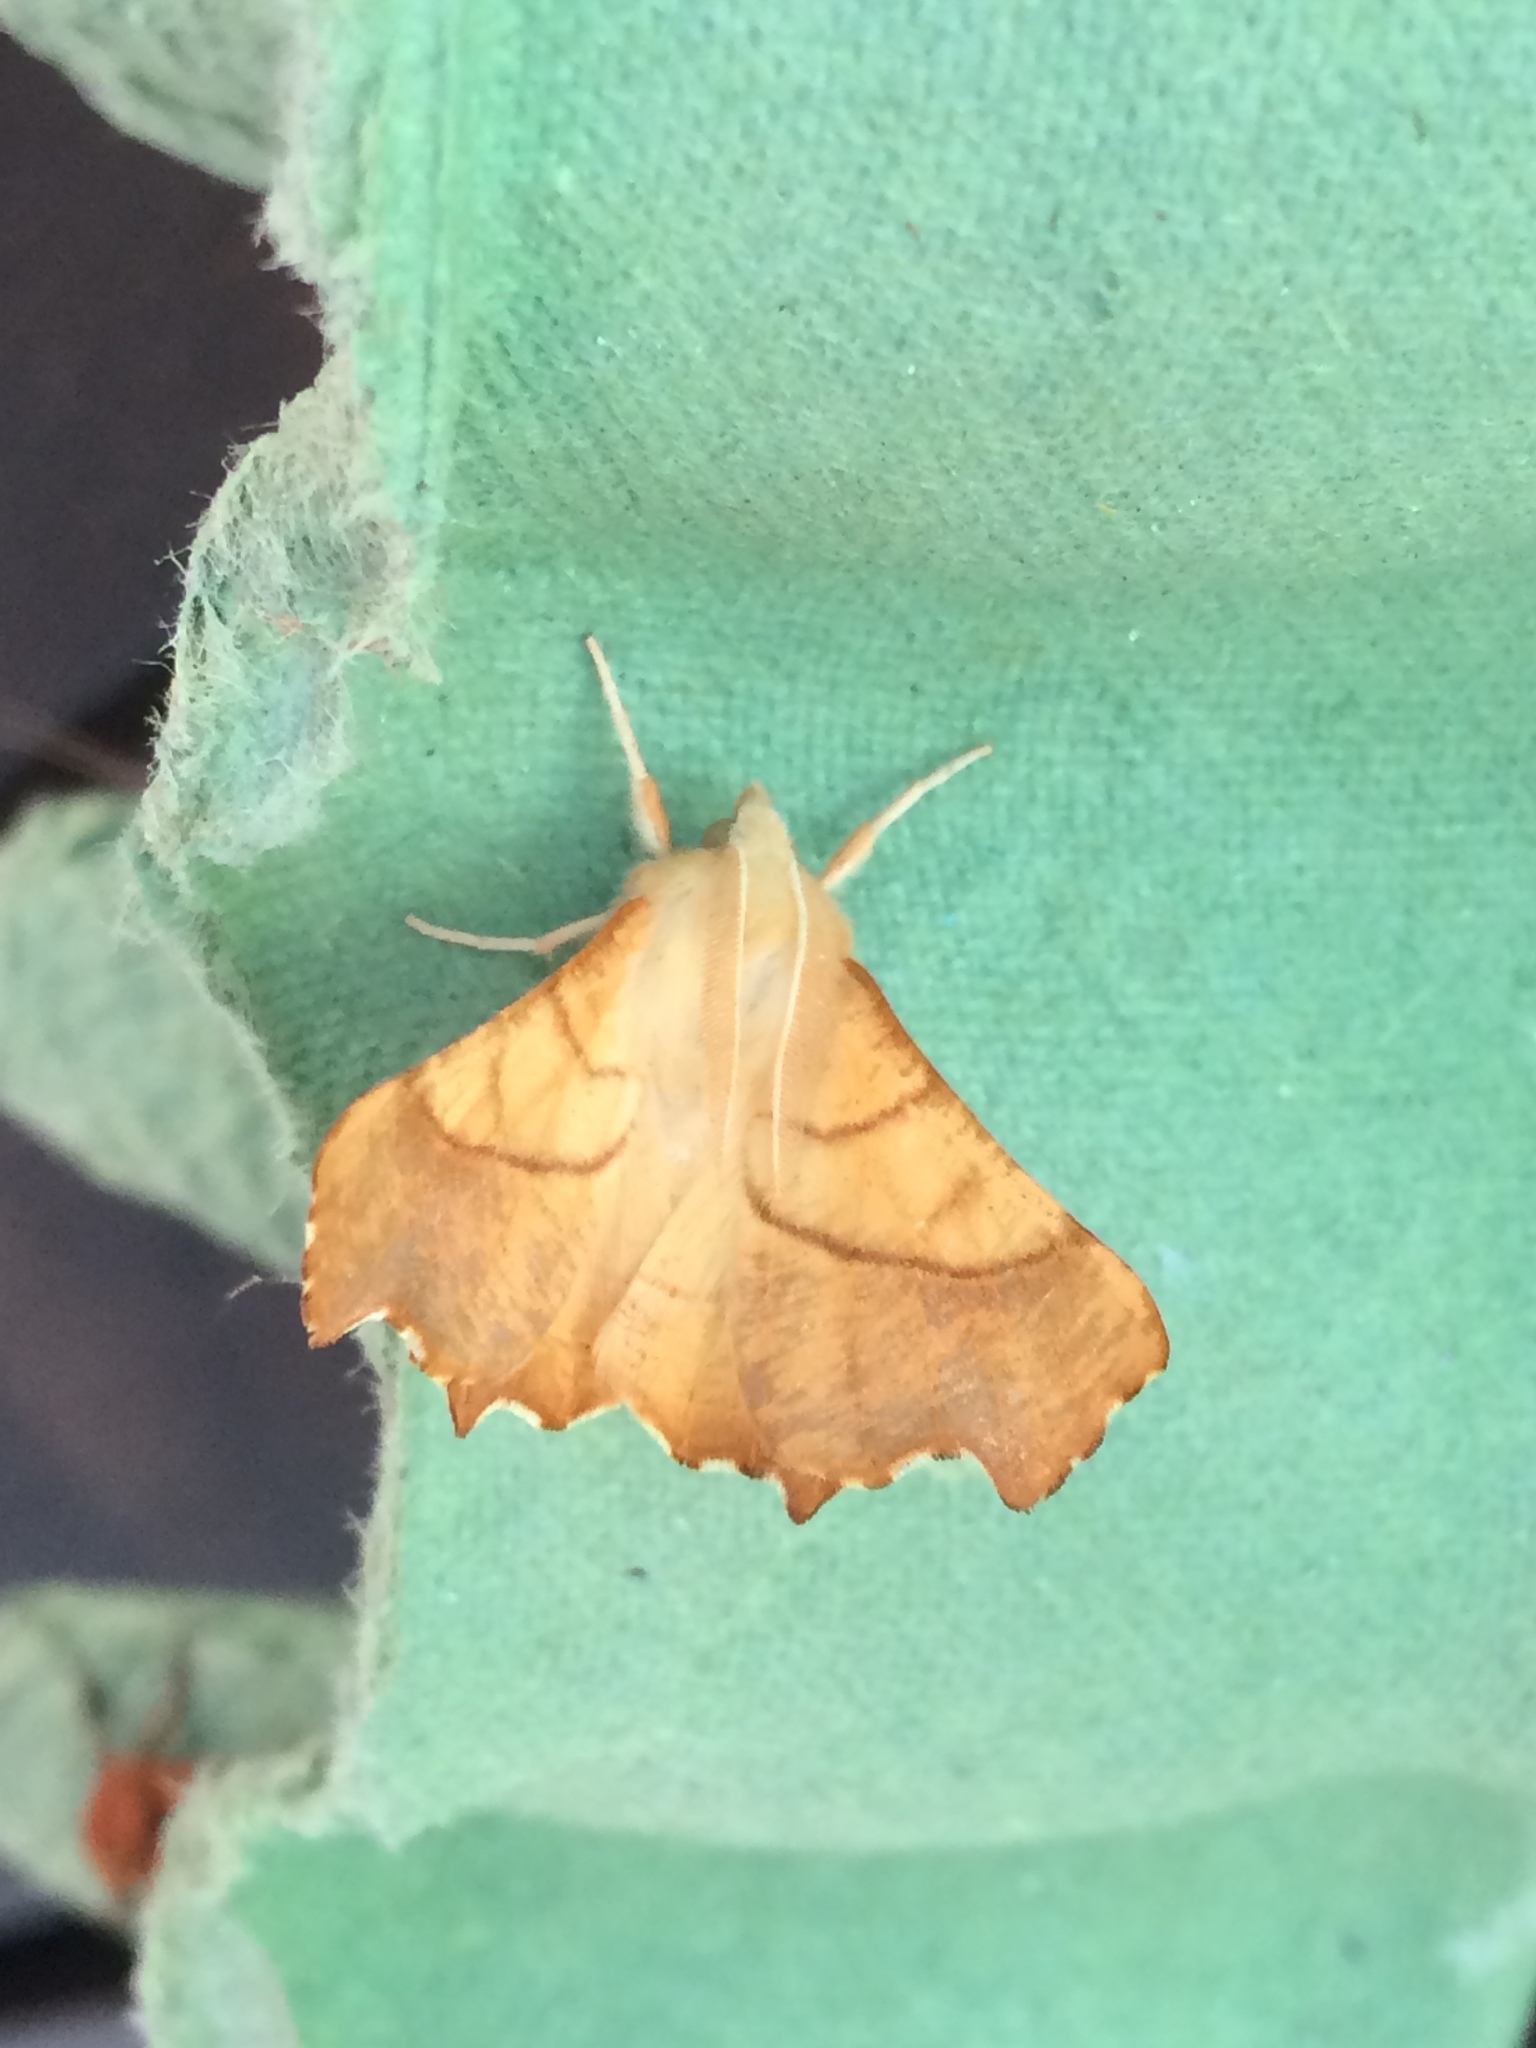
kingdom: Animalia
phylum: Arthropoda
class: Insecta
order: Lepidoptera
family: Geometridae
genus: Ennomos
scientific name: Ennomos fuscantaria
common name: Dusky thorn
